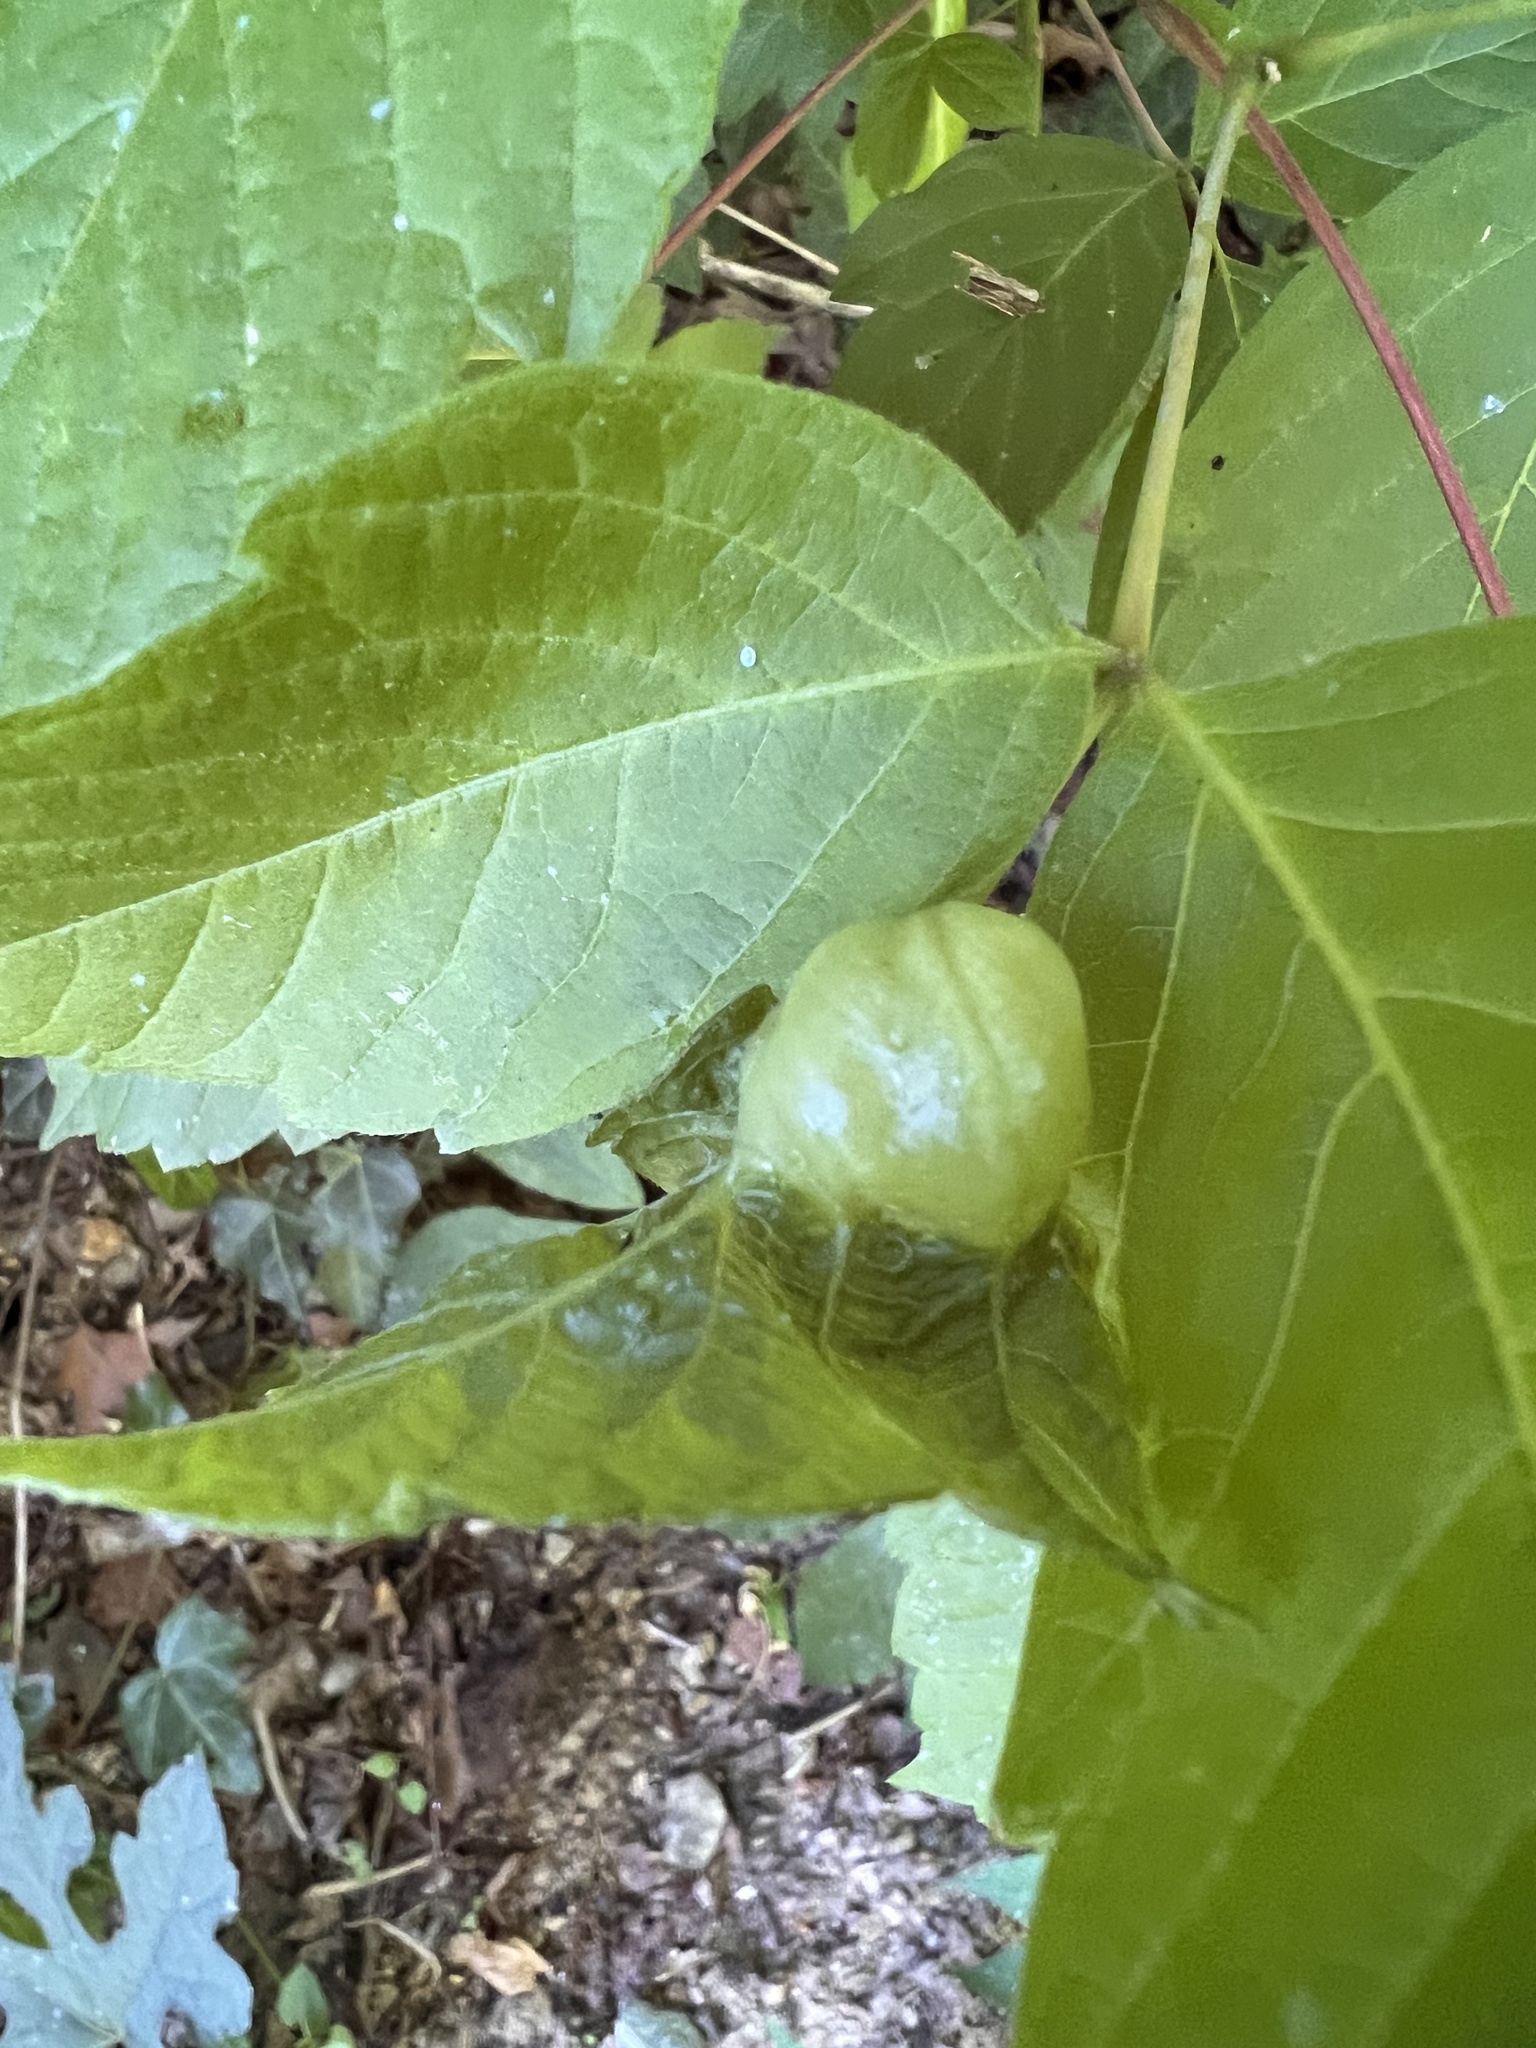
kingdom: Animalia
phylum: Arthropoda
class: Insecta
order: Diptera
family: Cecidomyiidae
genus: Contarinia
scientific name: Contarinia negundinis
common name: Boxelder budgall midge
